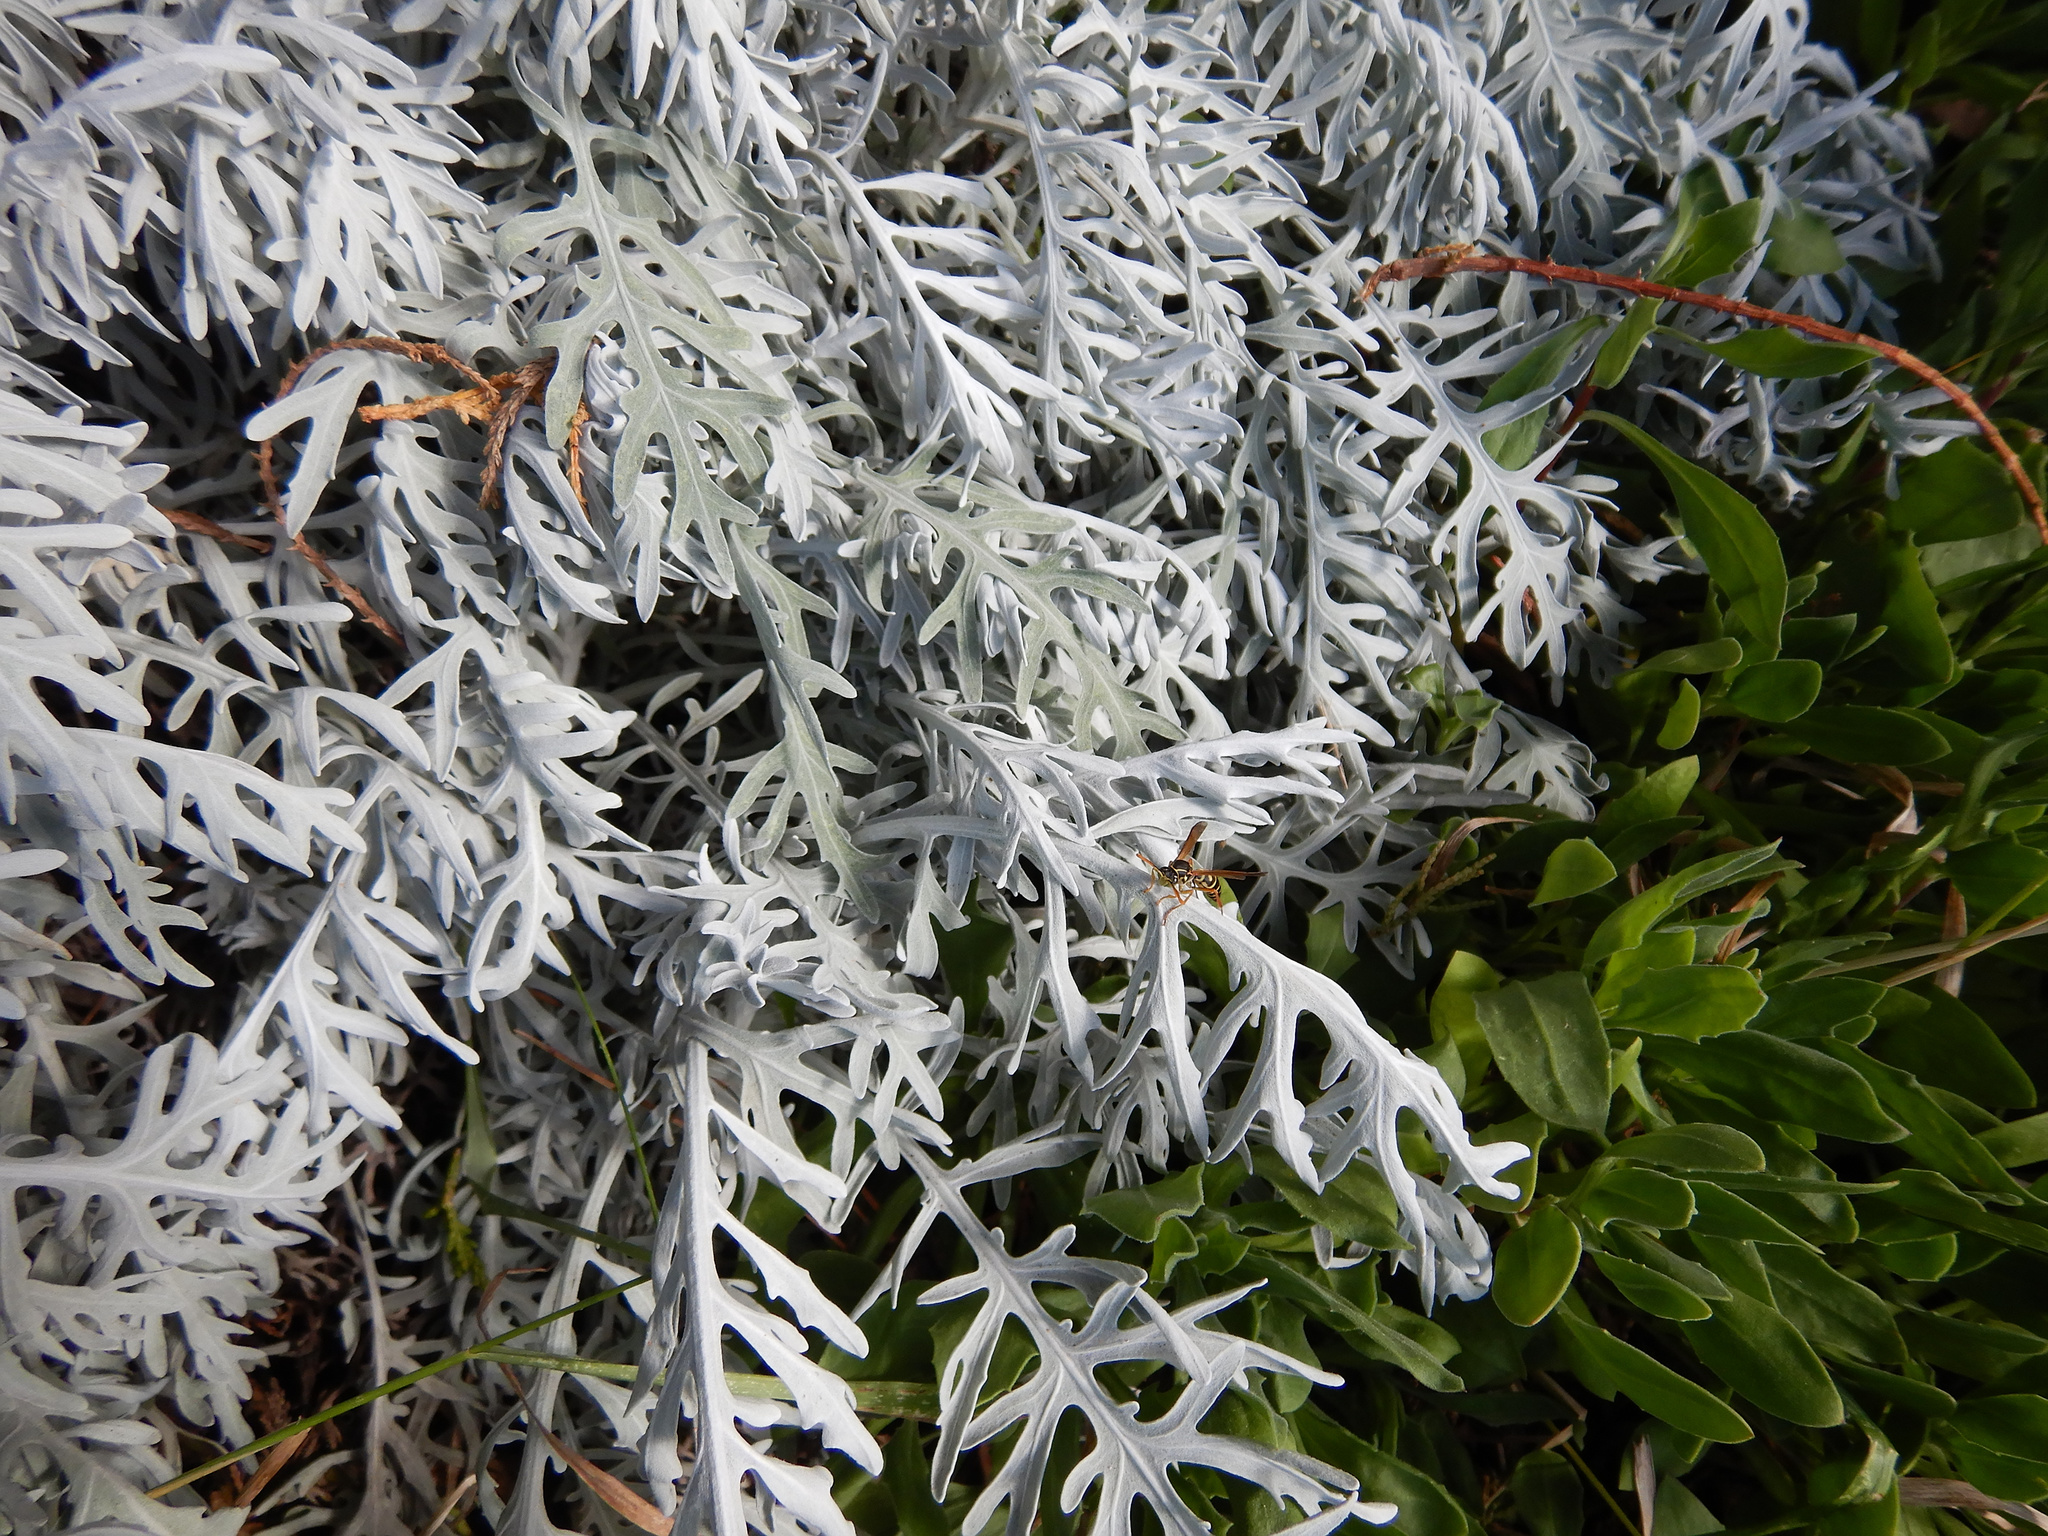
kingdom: Animalia
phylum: Arthropoda
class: Insecta
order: Hymenoptera
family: Eumenidae
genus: Polistes
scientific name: Polistes chinensis
